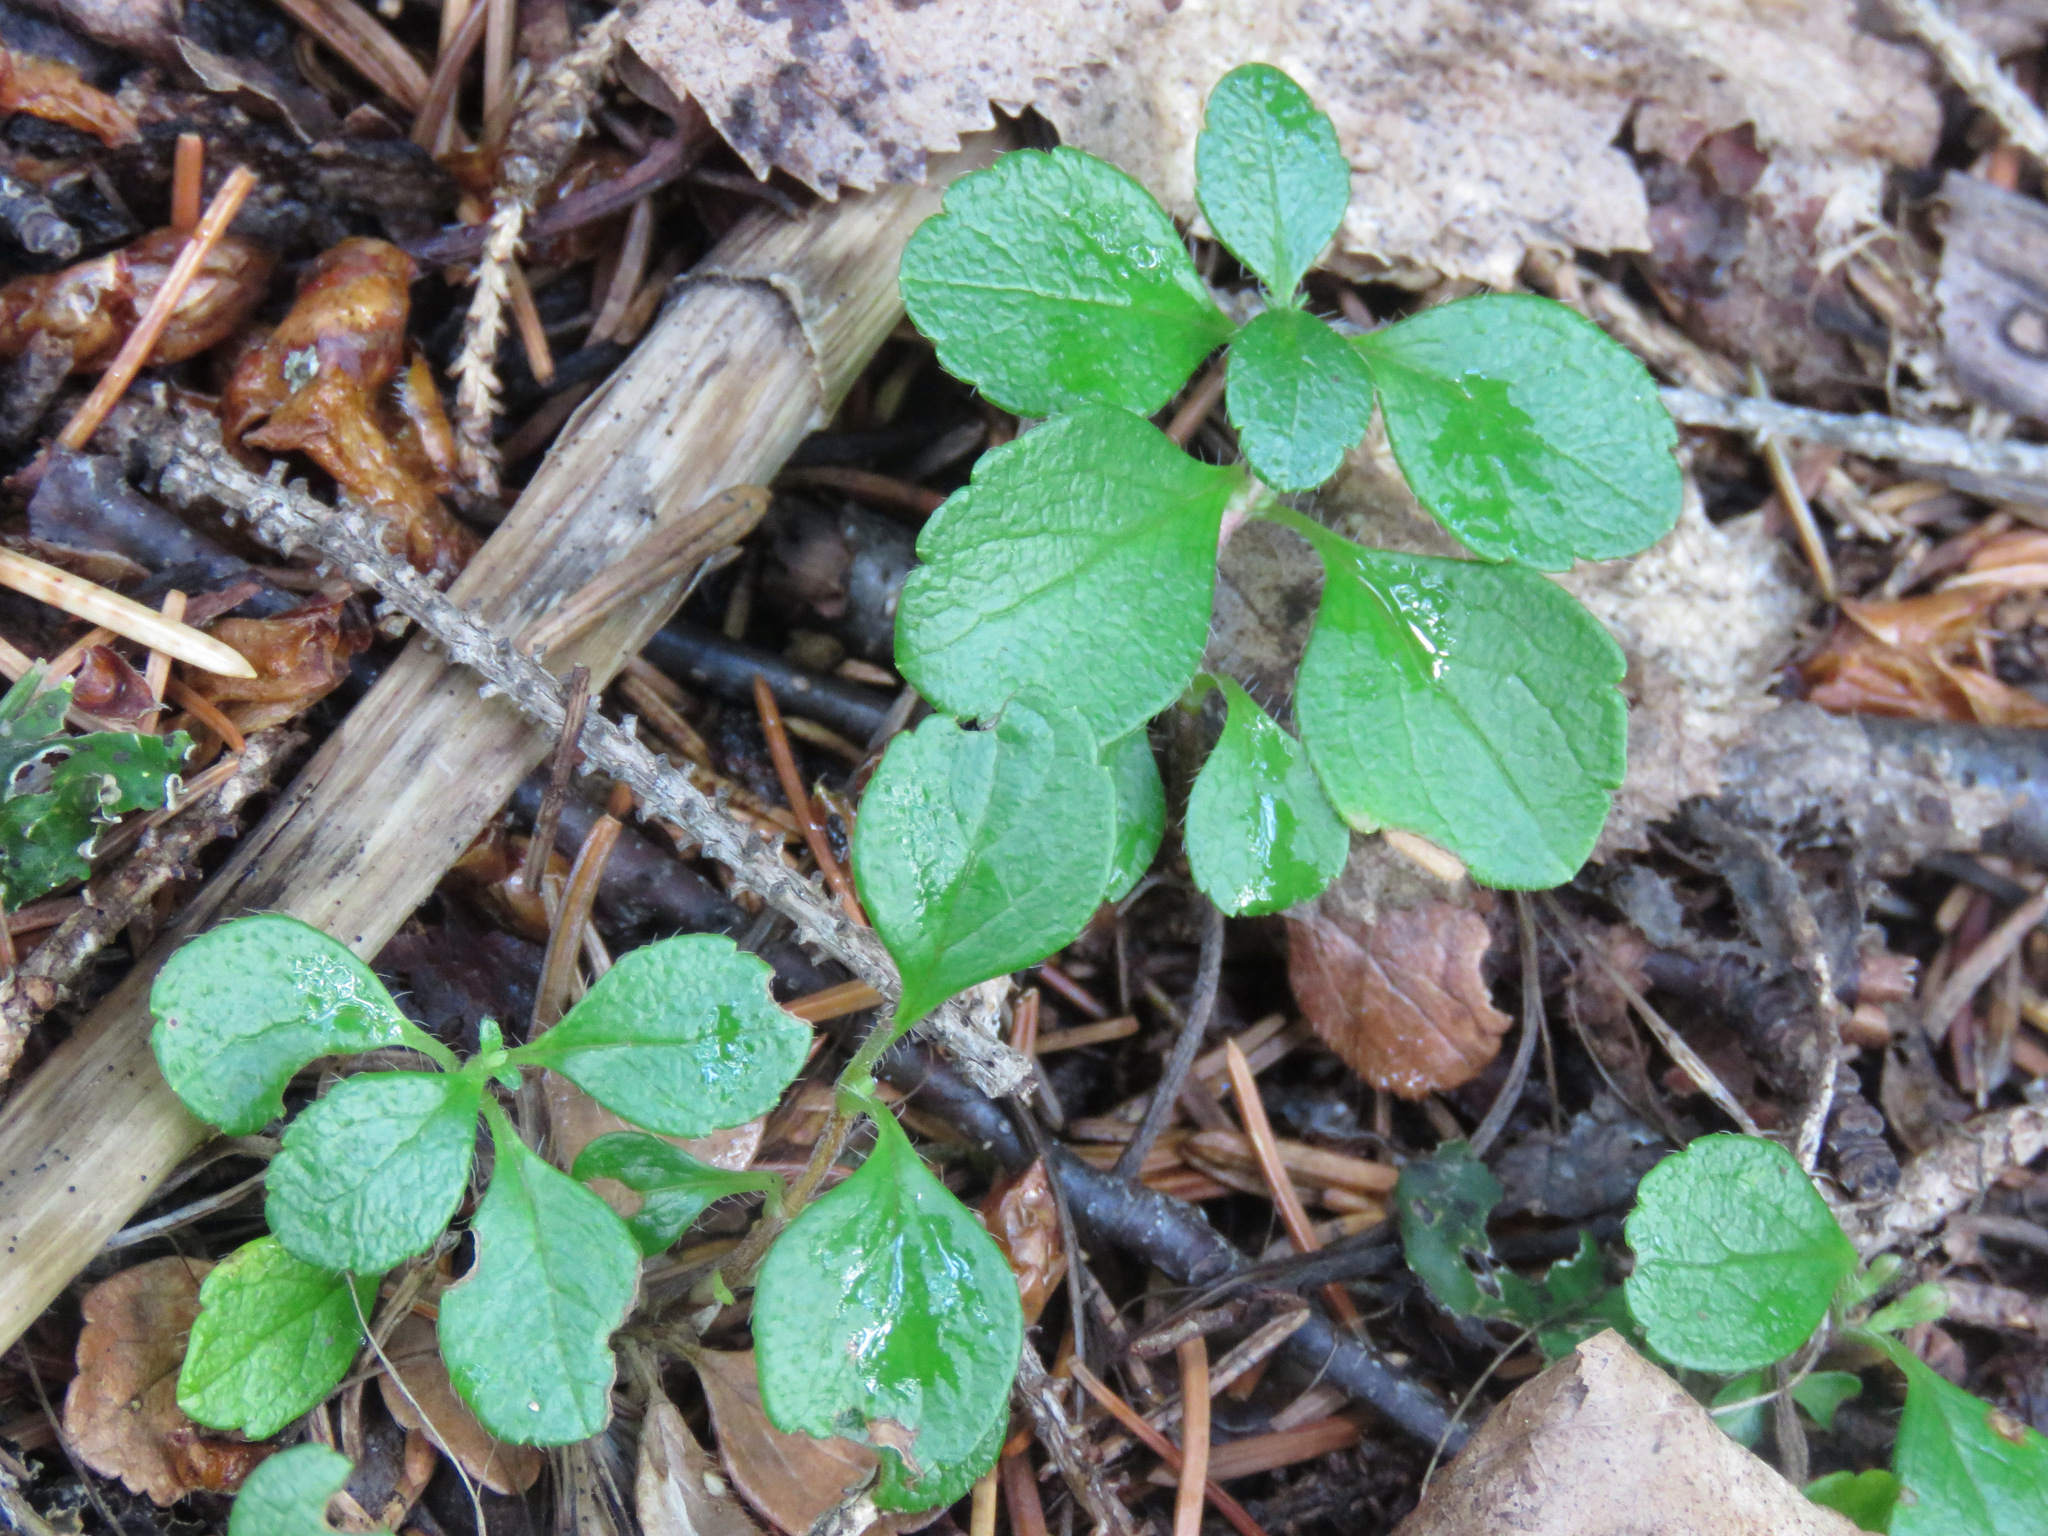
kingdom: Plantae
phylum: Tracheophyta
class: Magnoliopsida
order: Dipsacales
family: Caprifoliaceae
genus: Linnaea
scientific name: Linnaea borealis
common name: Twinflower
